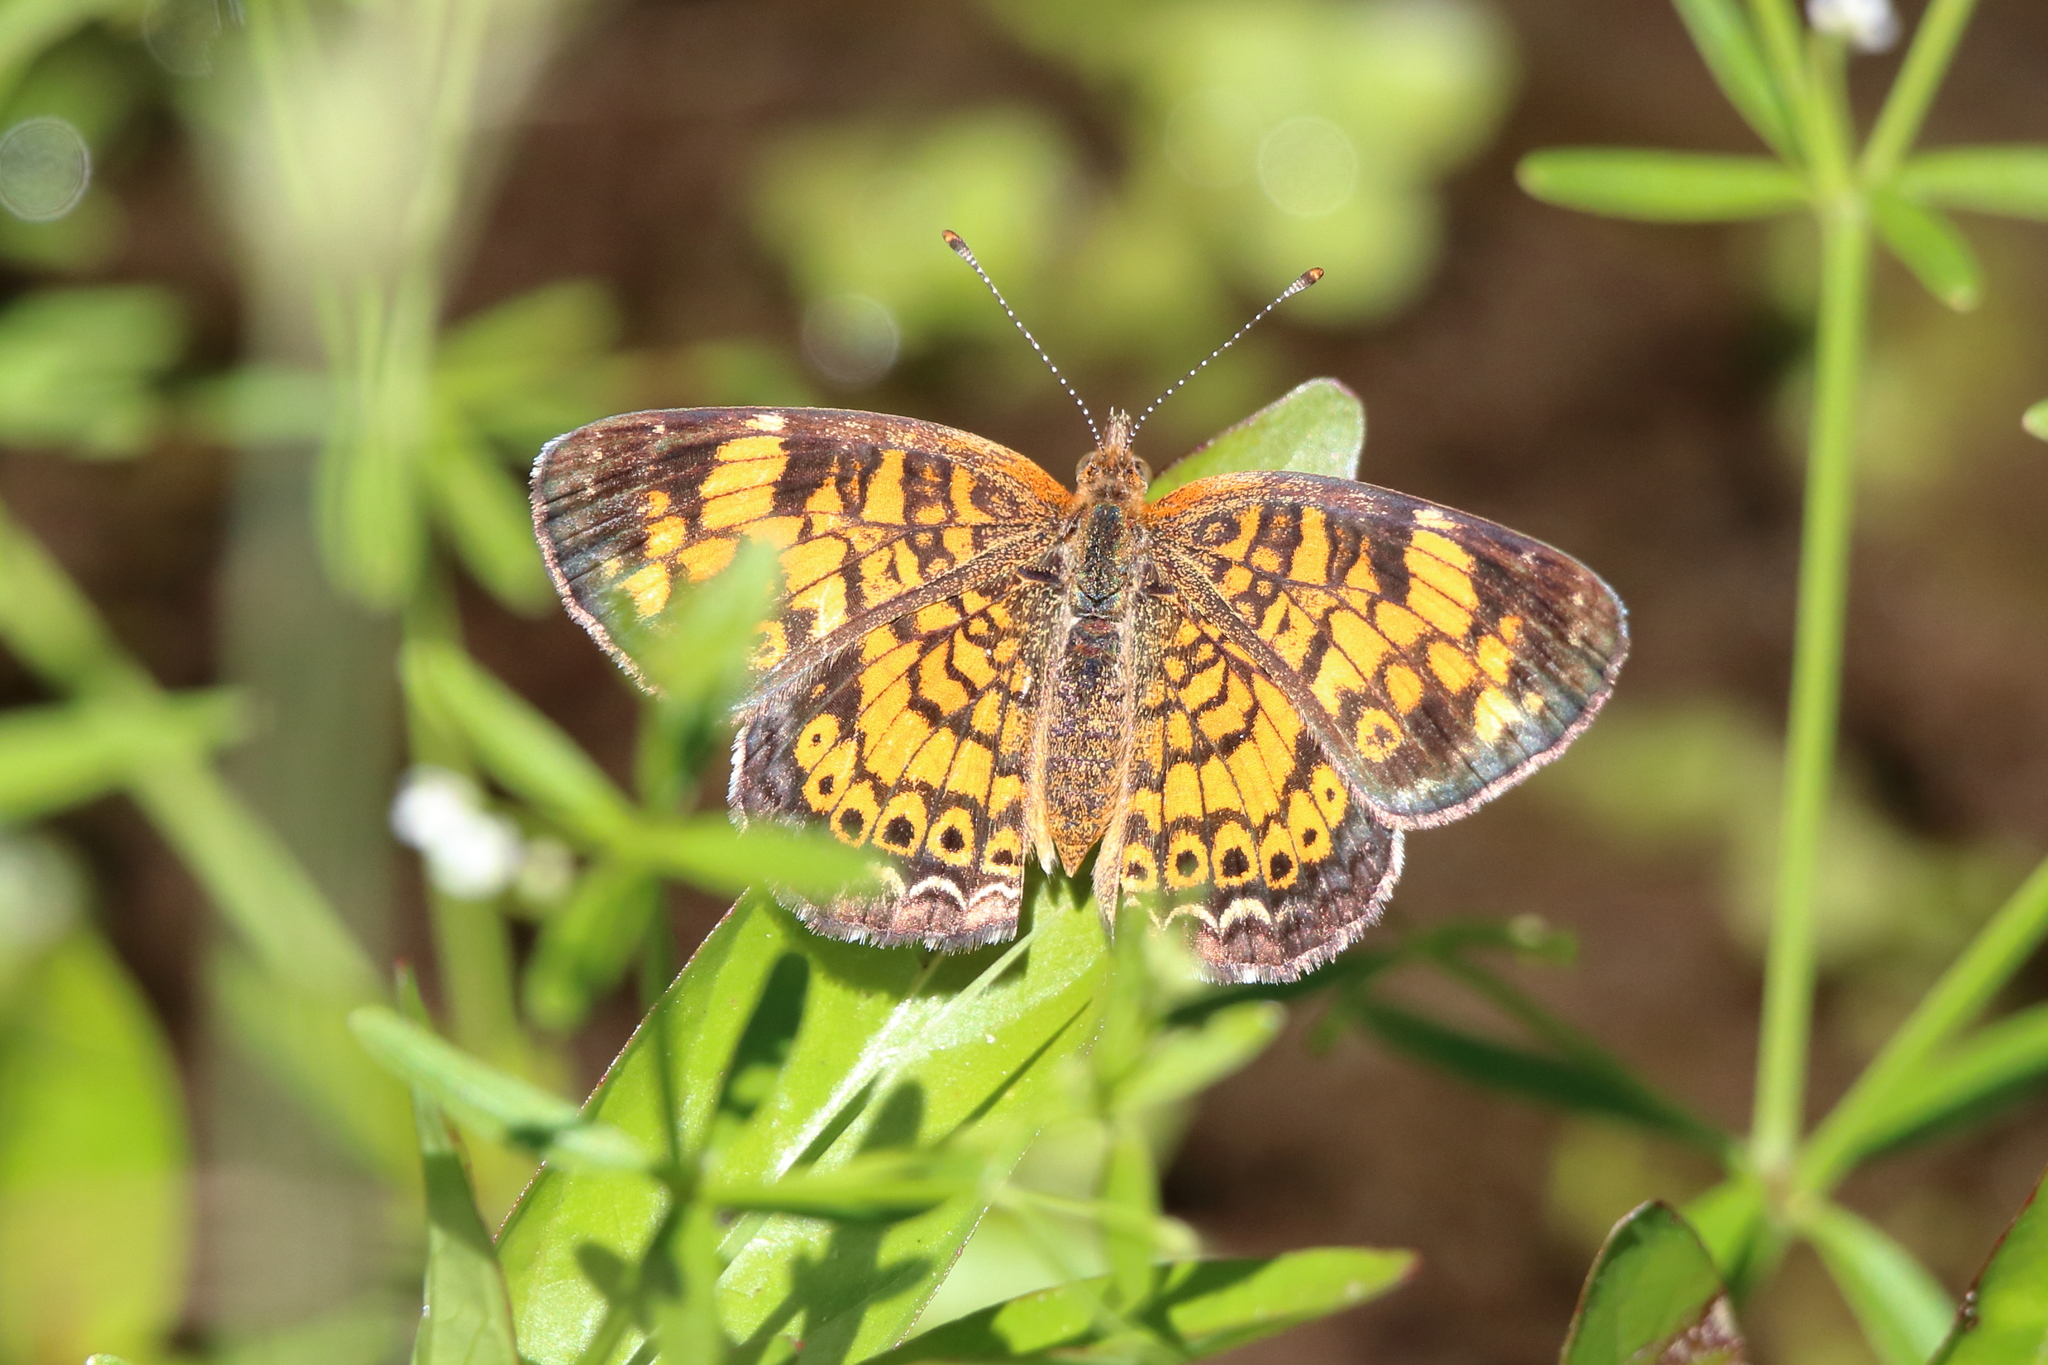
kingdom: Animalia
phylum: Arthropoda
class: Insecta
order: Lepidoptera
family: Nymphalidae
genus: Phyciodes
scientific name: Phyciodes tharos
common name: Pearl crescent
